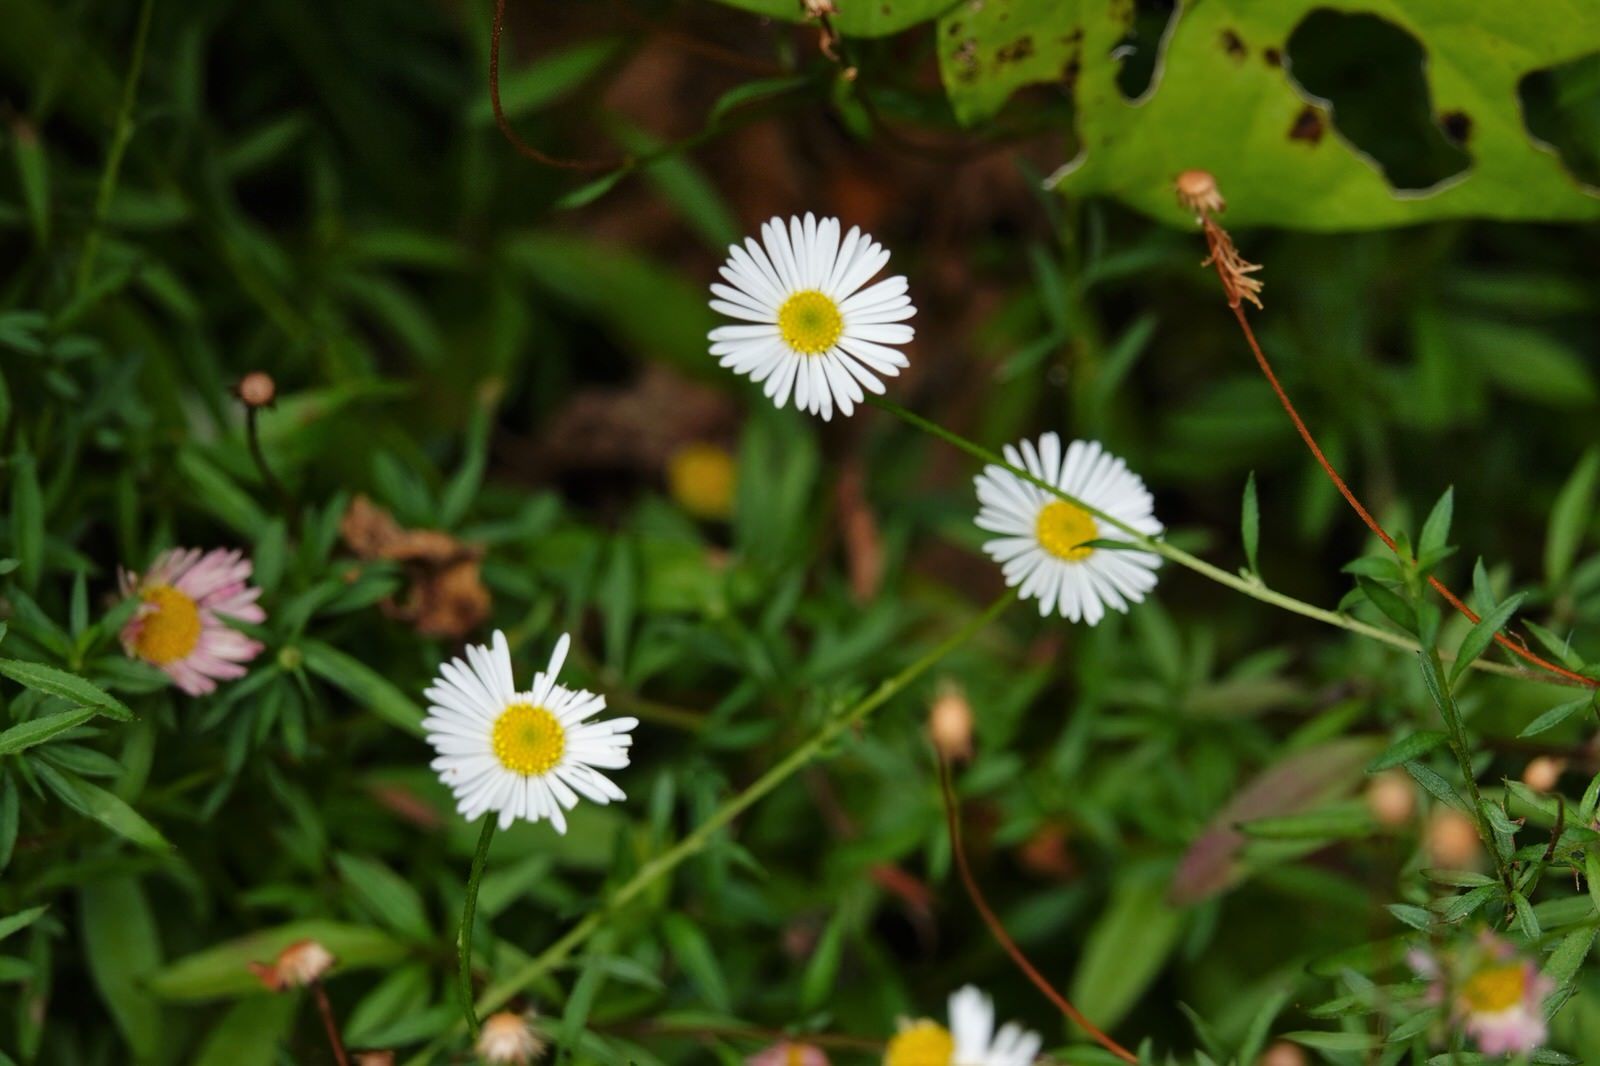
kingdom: Plantae
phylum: Tracheophyta
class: Magnoliopsida
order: Asterales
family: Asteraceae
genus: Erigeron
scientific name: Erigeron karvinskianus
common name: Mexican fleabane
